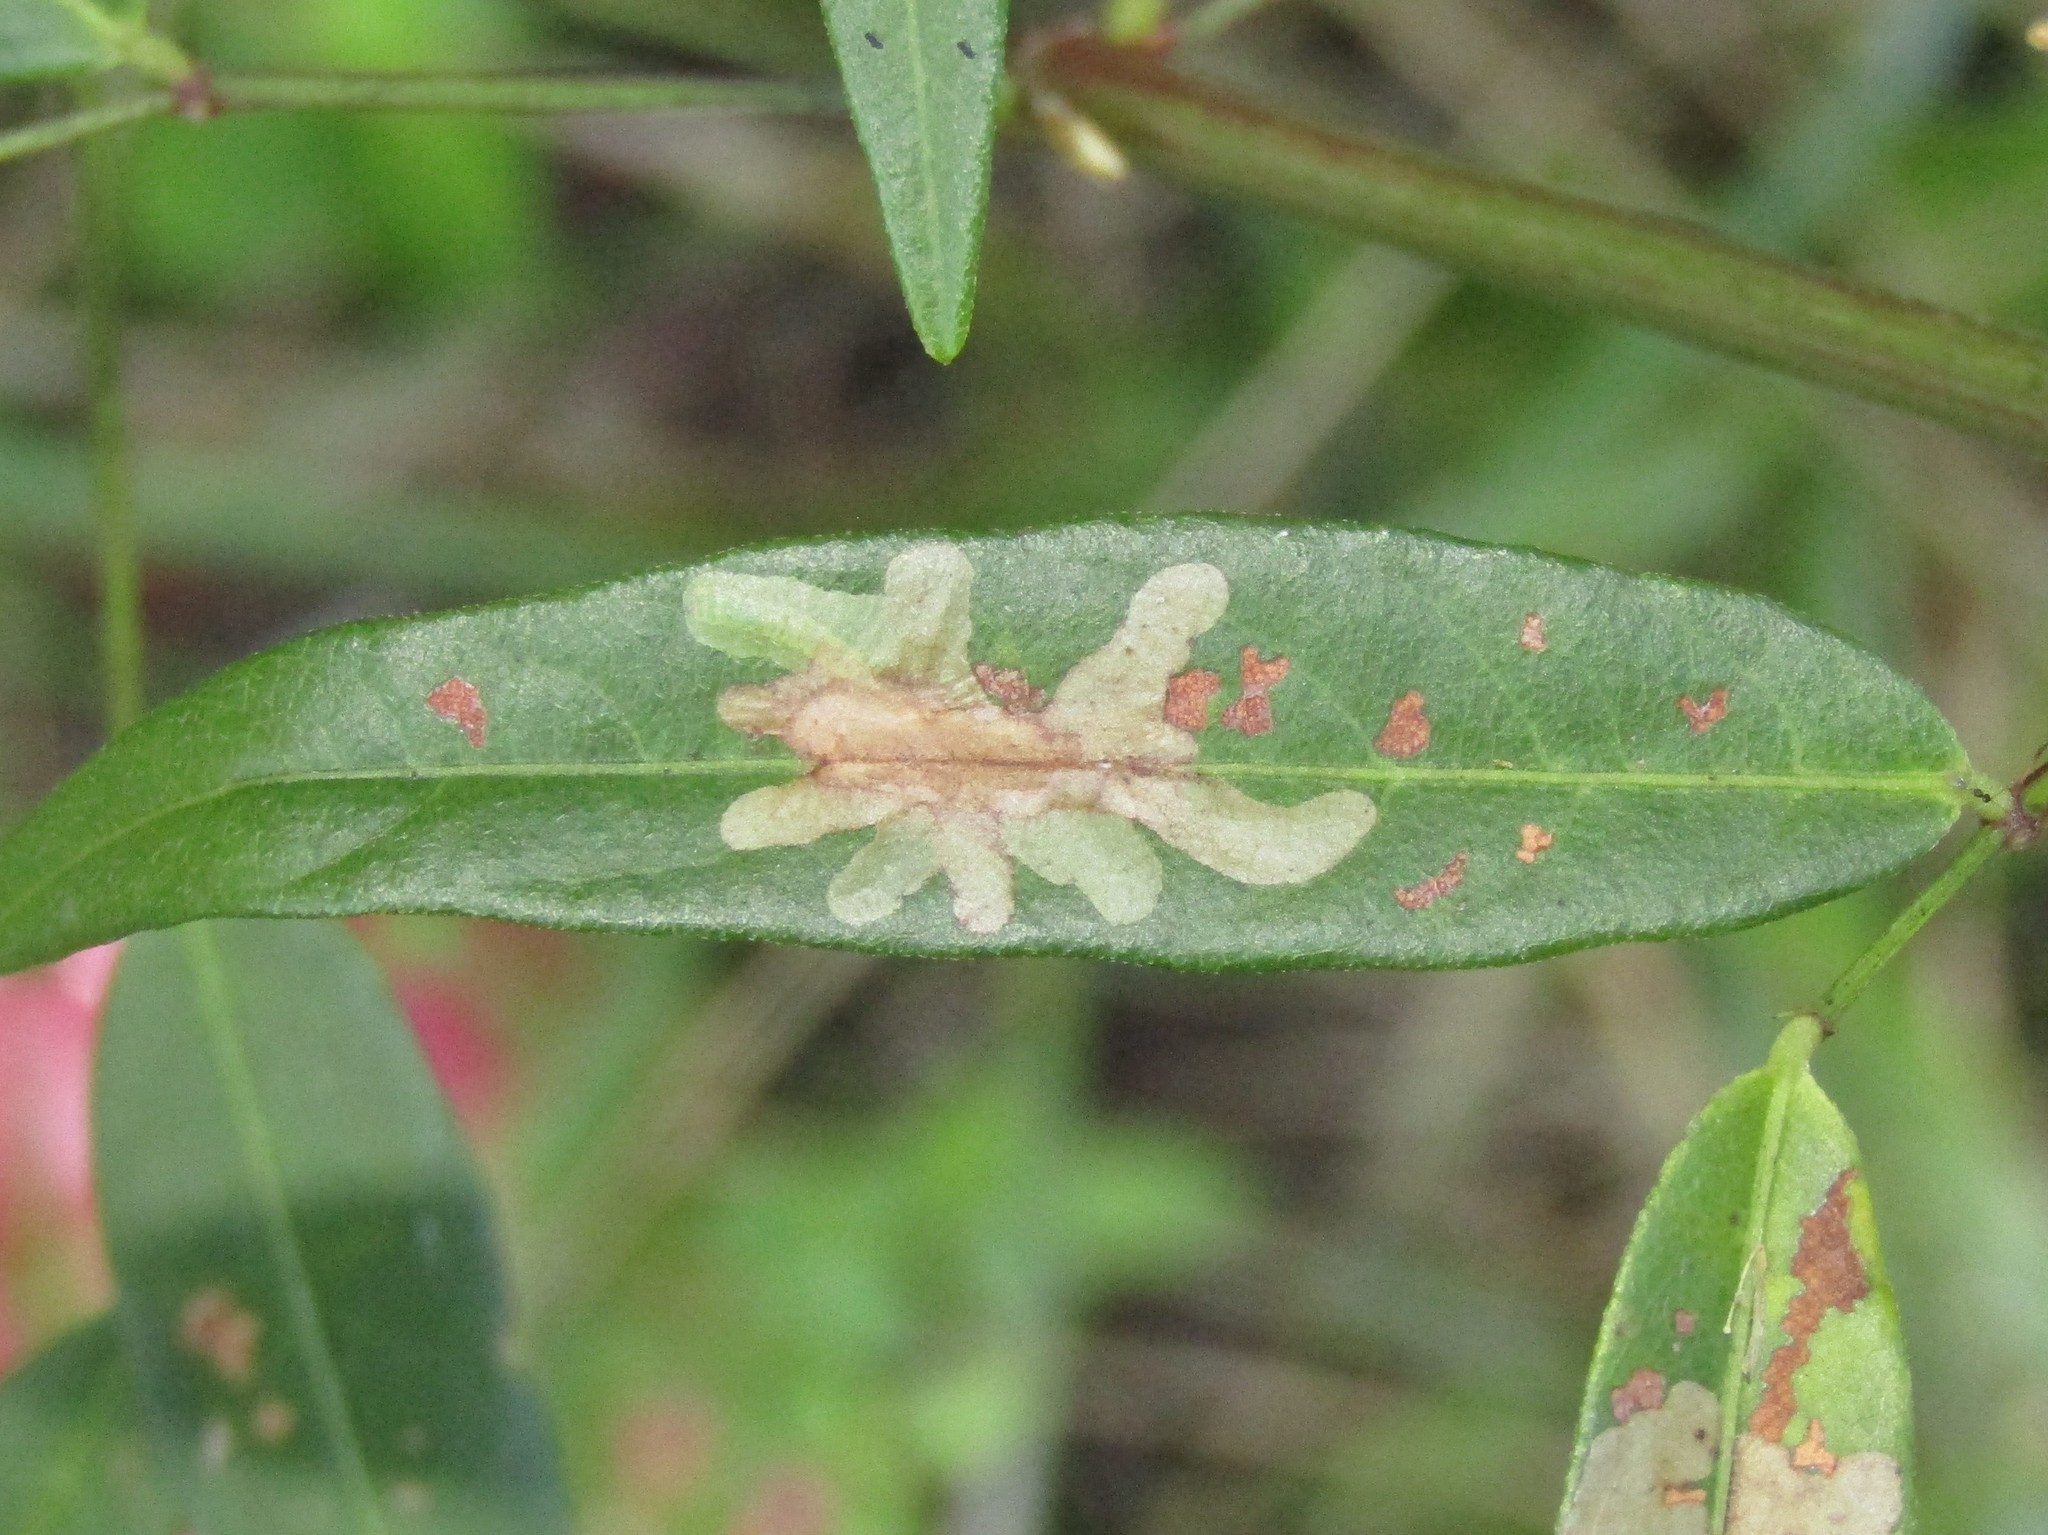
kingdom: Animalia
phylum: Arthropoda
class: Insecta
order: Lepidoptera
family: Gracillariidae
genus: Parectopa
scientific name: Parectopa robiniella
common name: Locust digitate leafminer
